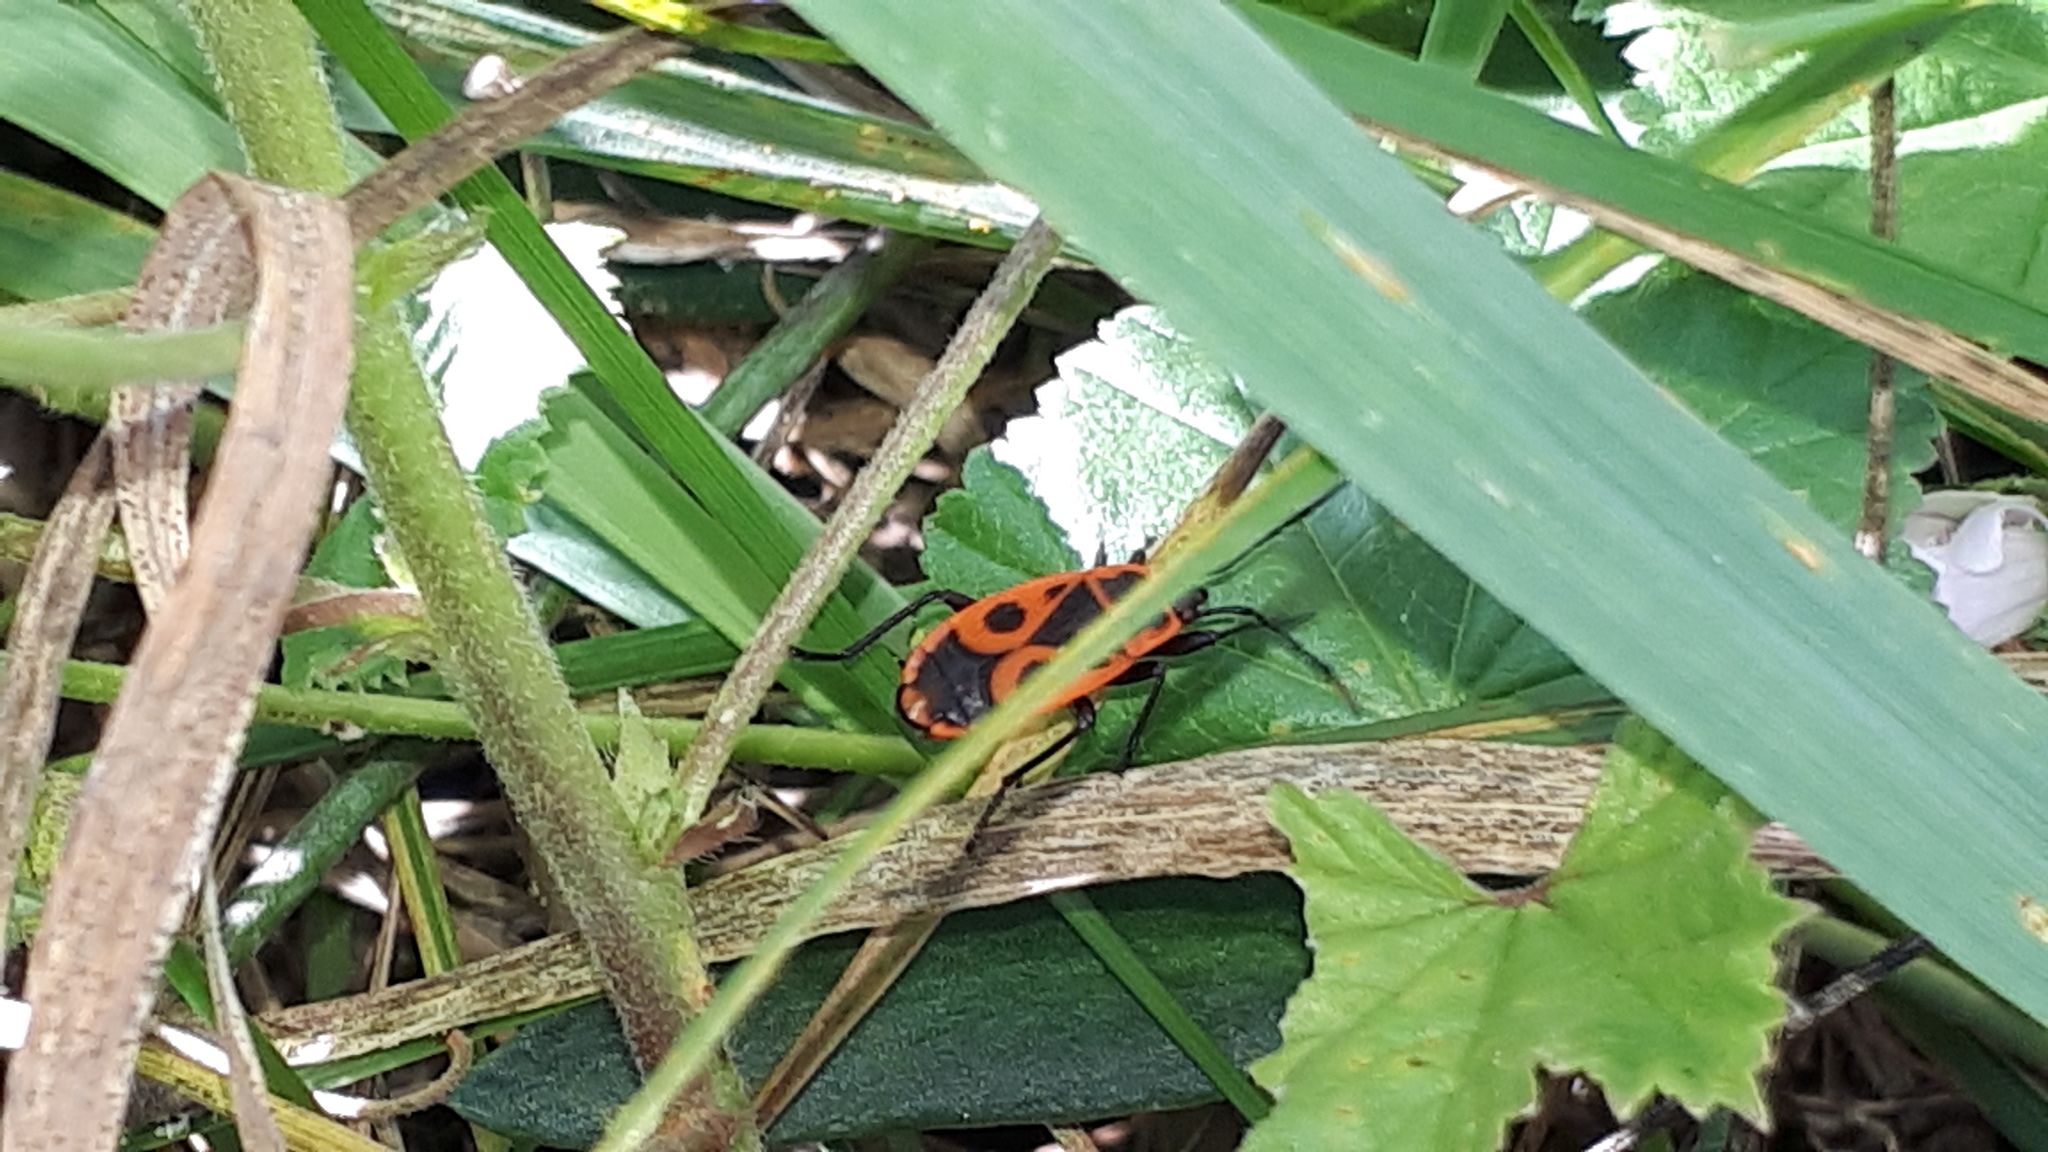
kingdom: Animalia
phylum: Arthropoda
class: Insecta
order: Hemiptera
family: Pyrrhocoridae
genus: Pyrrhocoris
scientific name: Pyrrhocoris apterus
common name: Firebug
